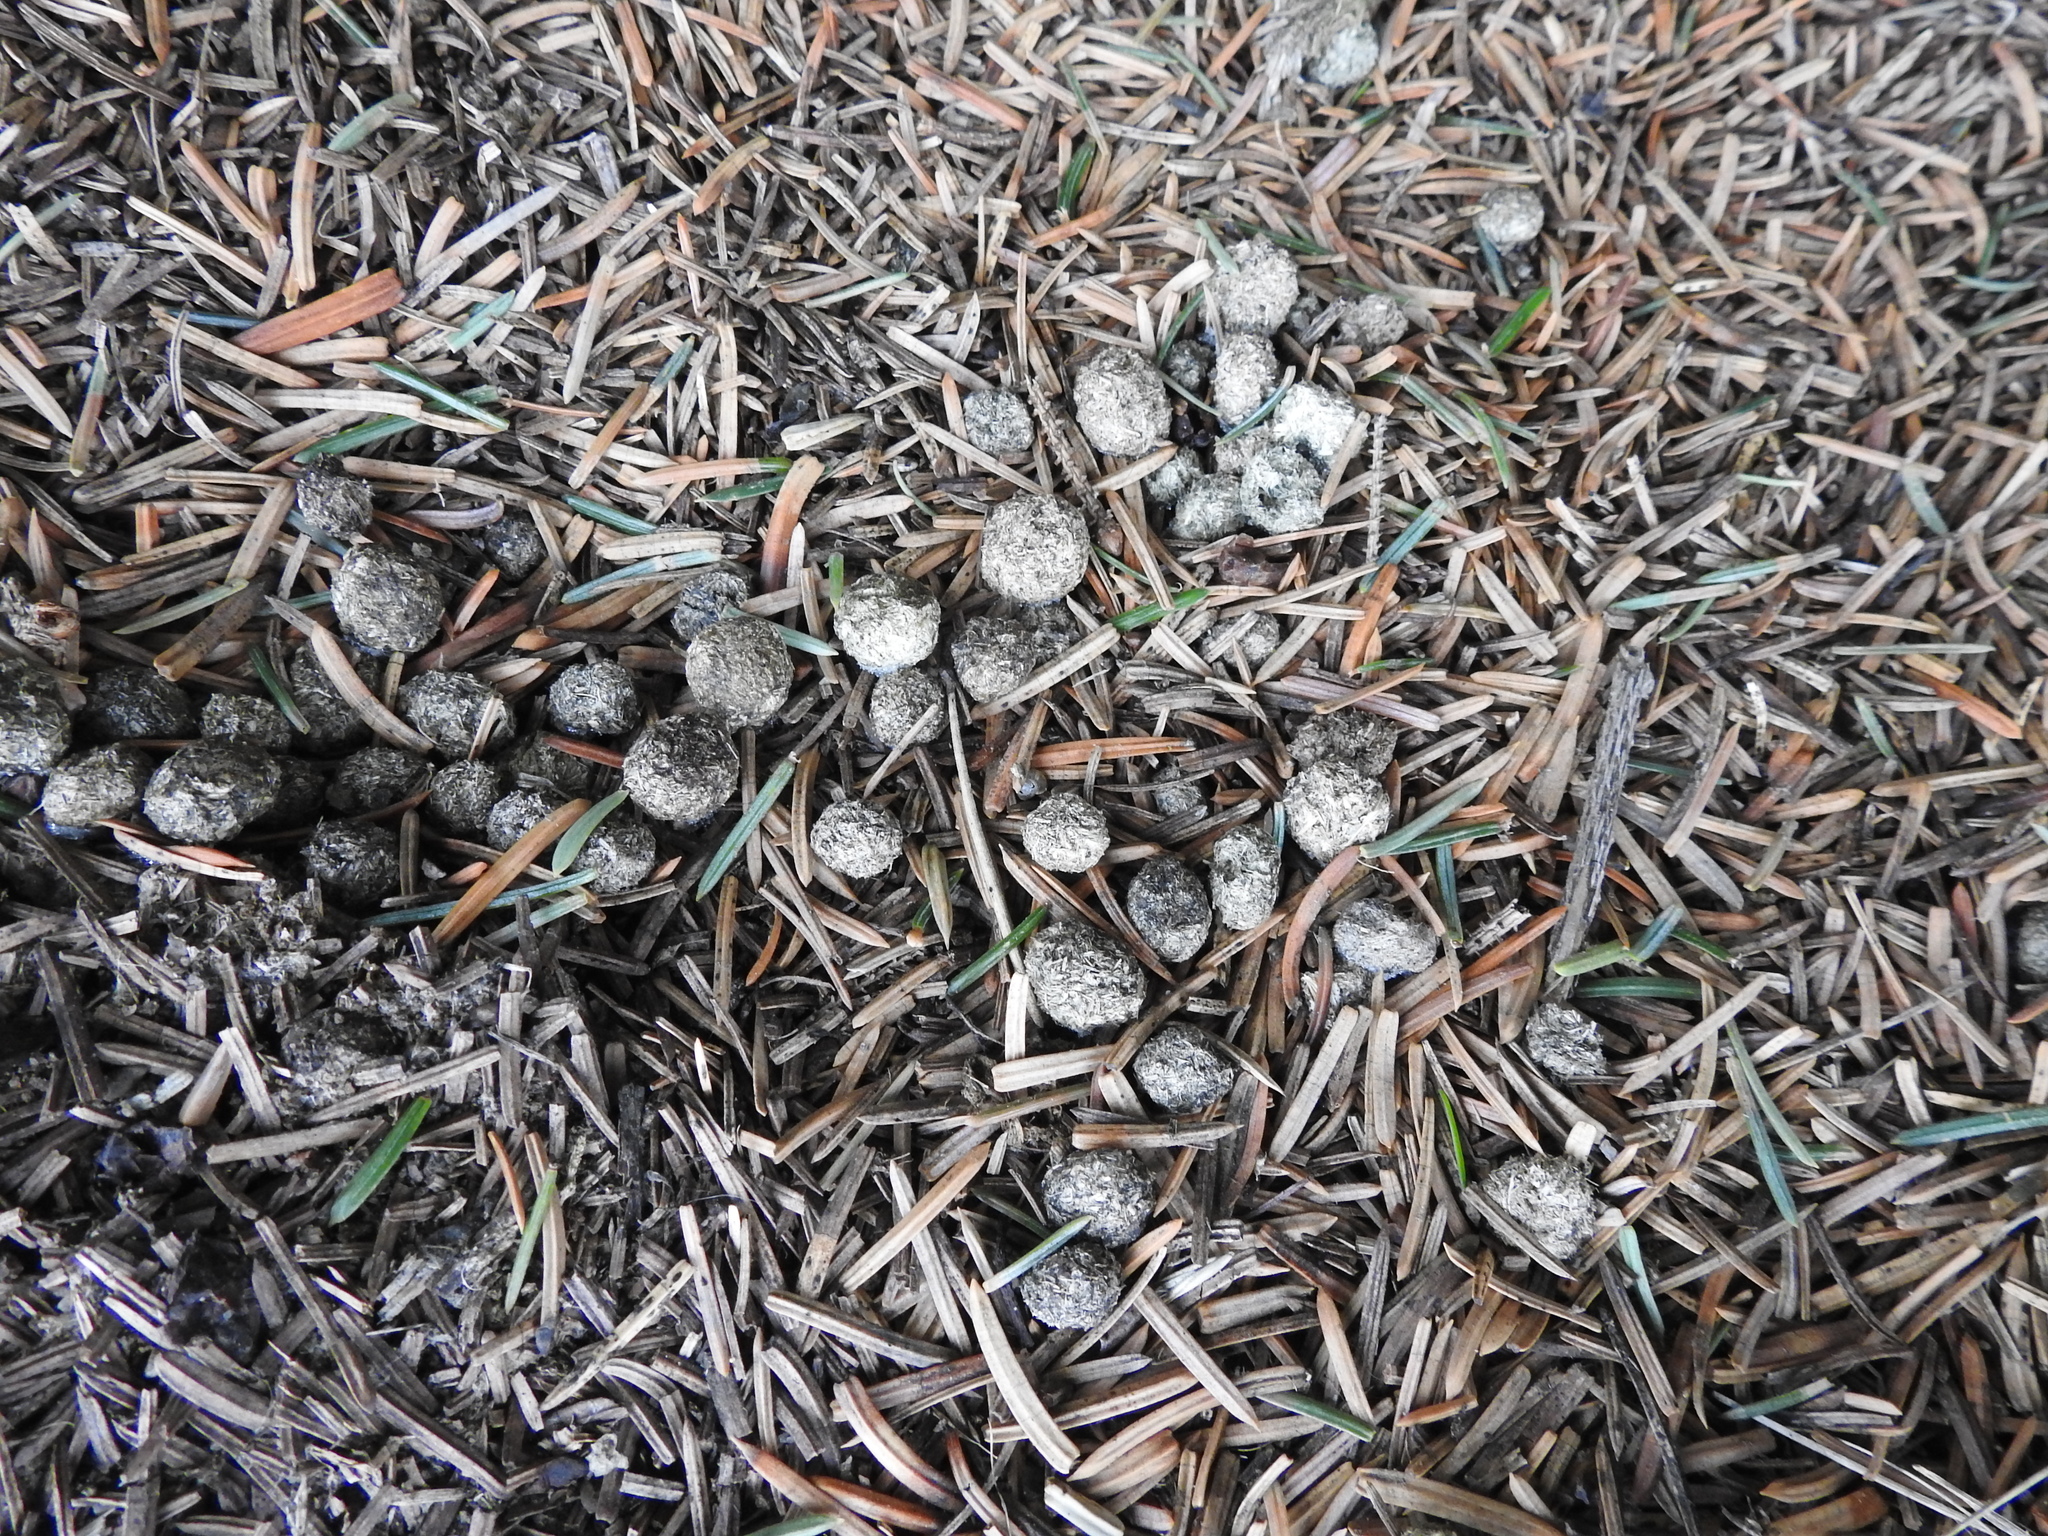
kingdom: Animalia
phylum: Chordata
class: Mammalia
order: Lagomorpha
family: Leporidae
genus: Oryctolagus
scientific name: Oryctolagus cuniculus
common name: European rabbit
